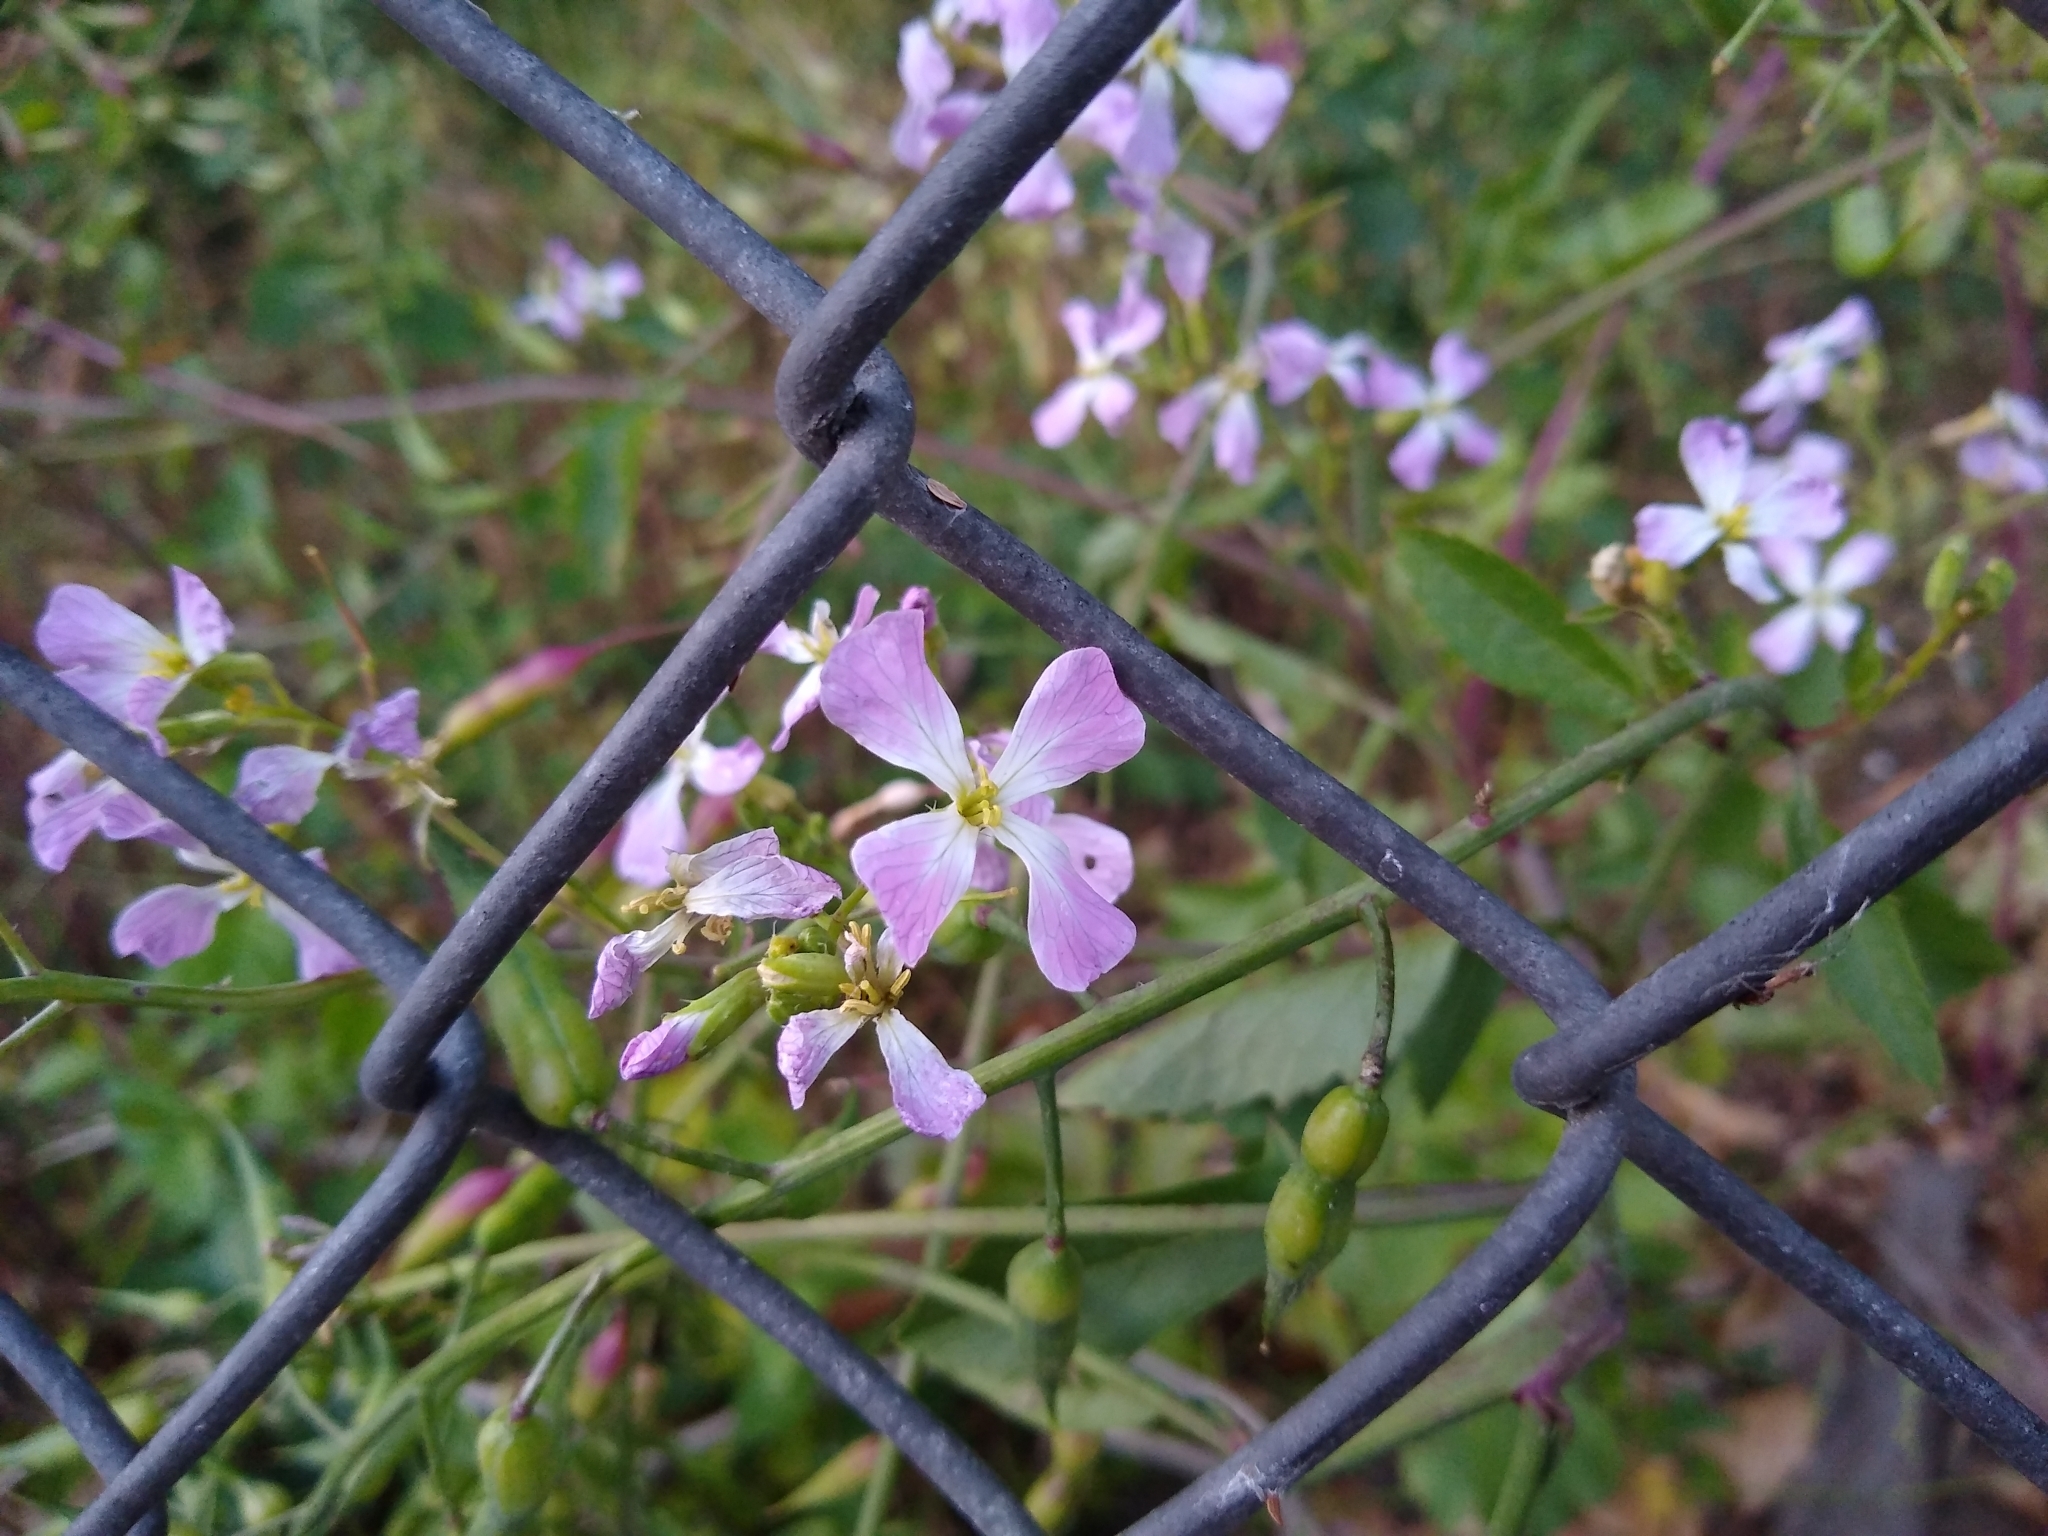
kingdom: Plantae
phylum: Tracheophyta
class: Magnoliopsida
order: Brassicales
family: Brassicaceae
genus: Raphanus
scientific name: Raphanus sativus
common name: Cultivated radish
